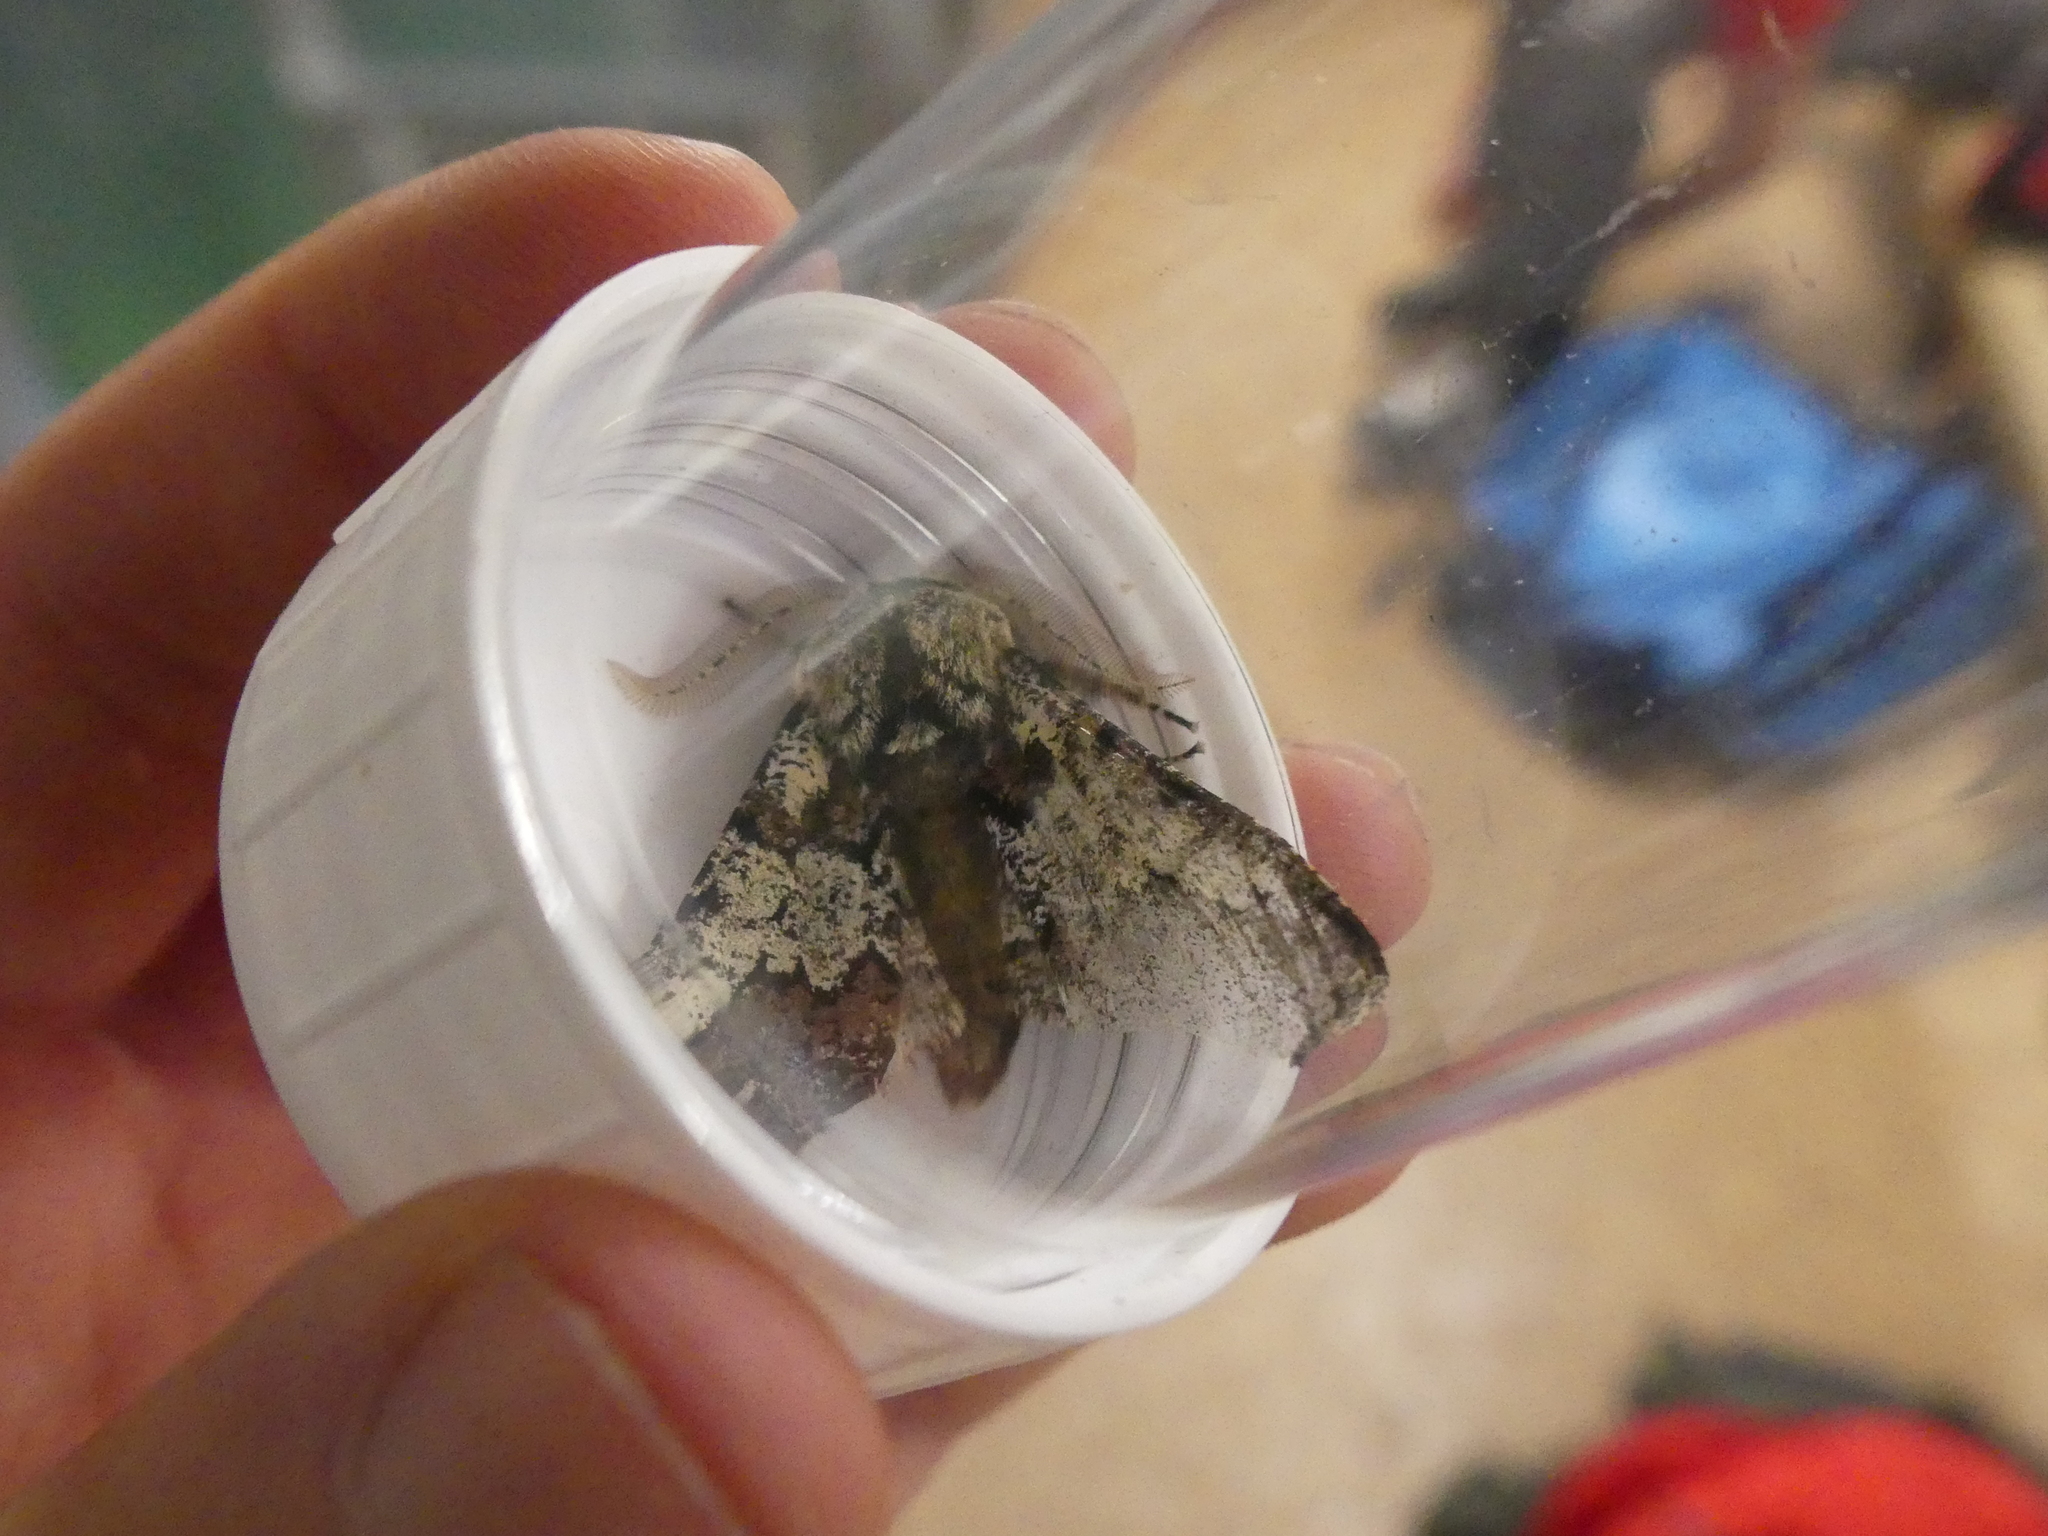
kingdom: Animalia
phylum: Arthropoda
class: Insecta
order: Lepidoptera
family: Geometridae
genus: Biston
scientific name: Biston strataria
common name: Oak beauty
